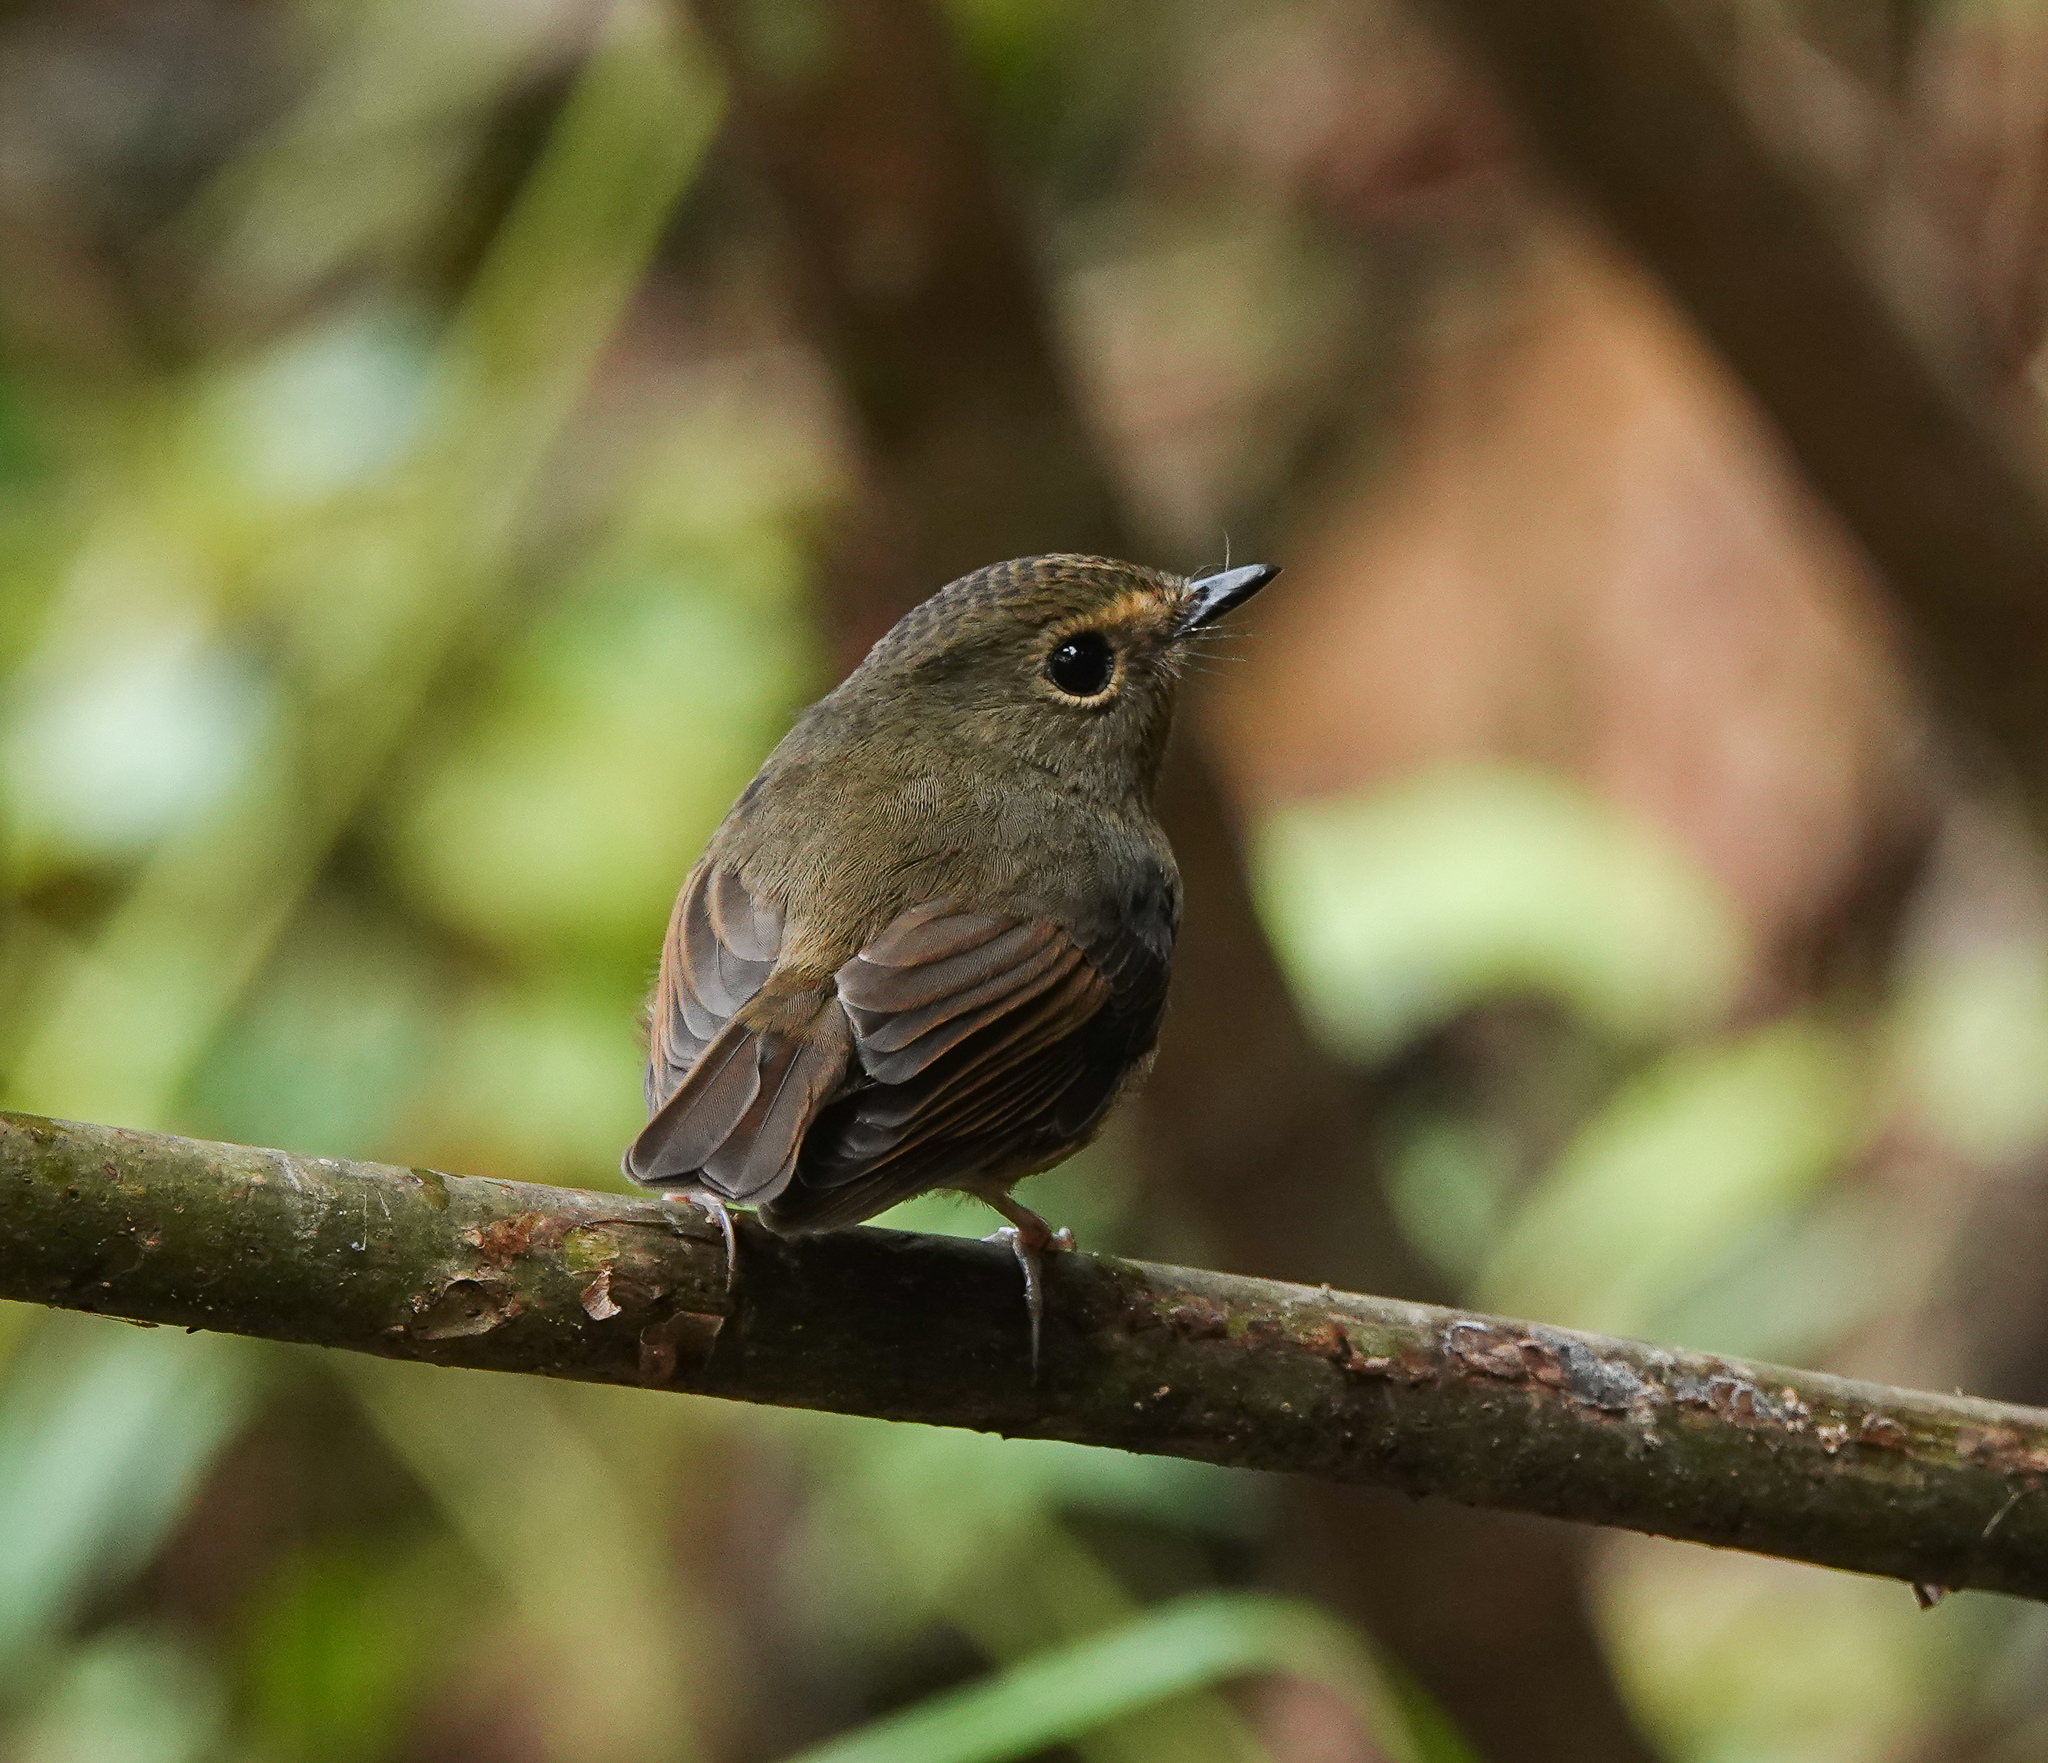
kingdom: Animalia
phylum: Chordata
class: Aves
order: Passeriformes
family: Muscicapidae
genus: Ficedula
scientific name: Ficedula hyperythra
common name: Snowy-browed flycatcher
